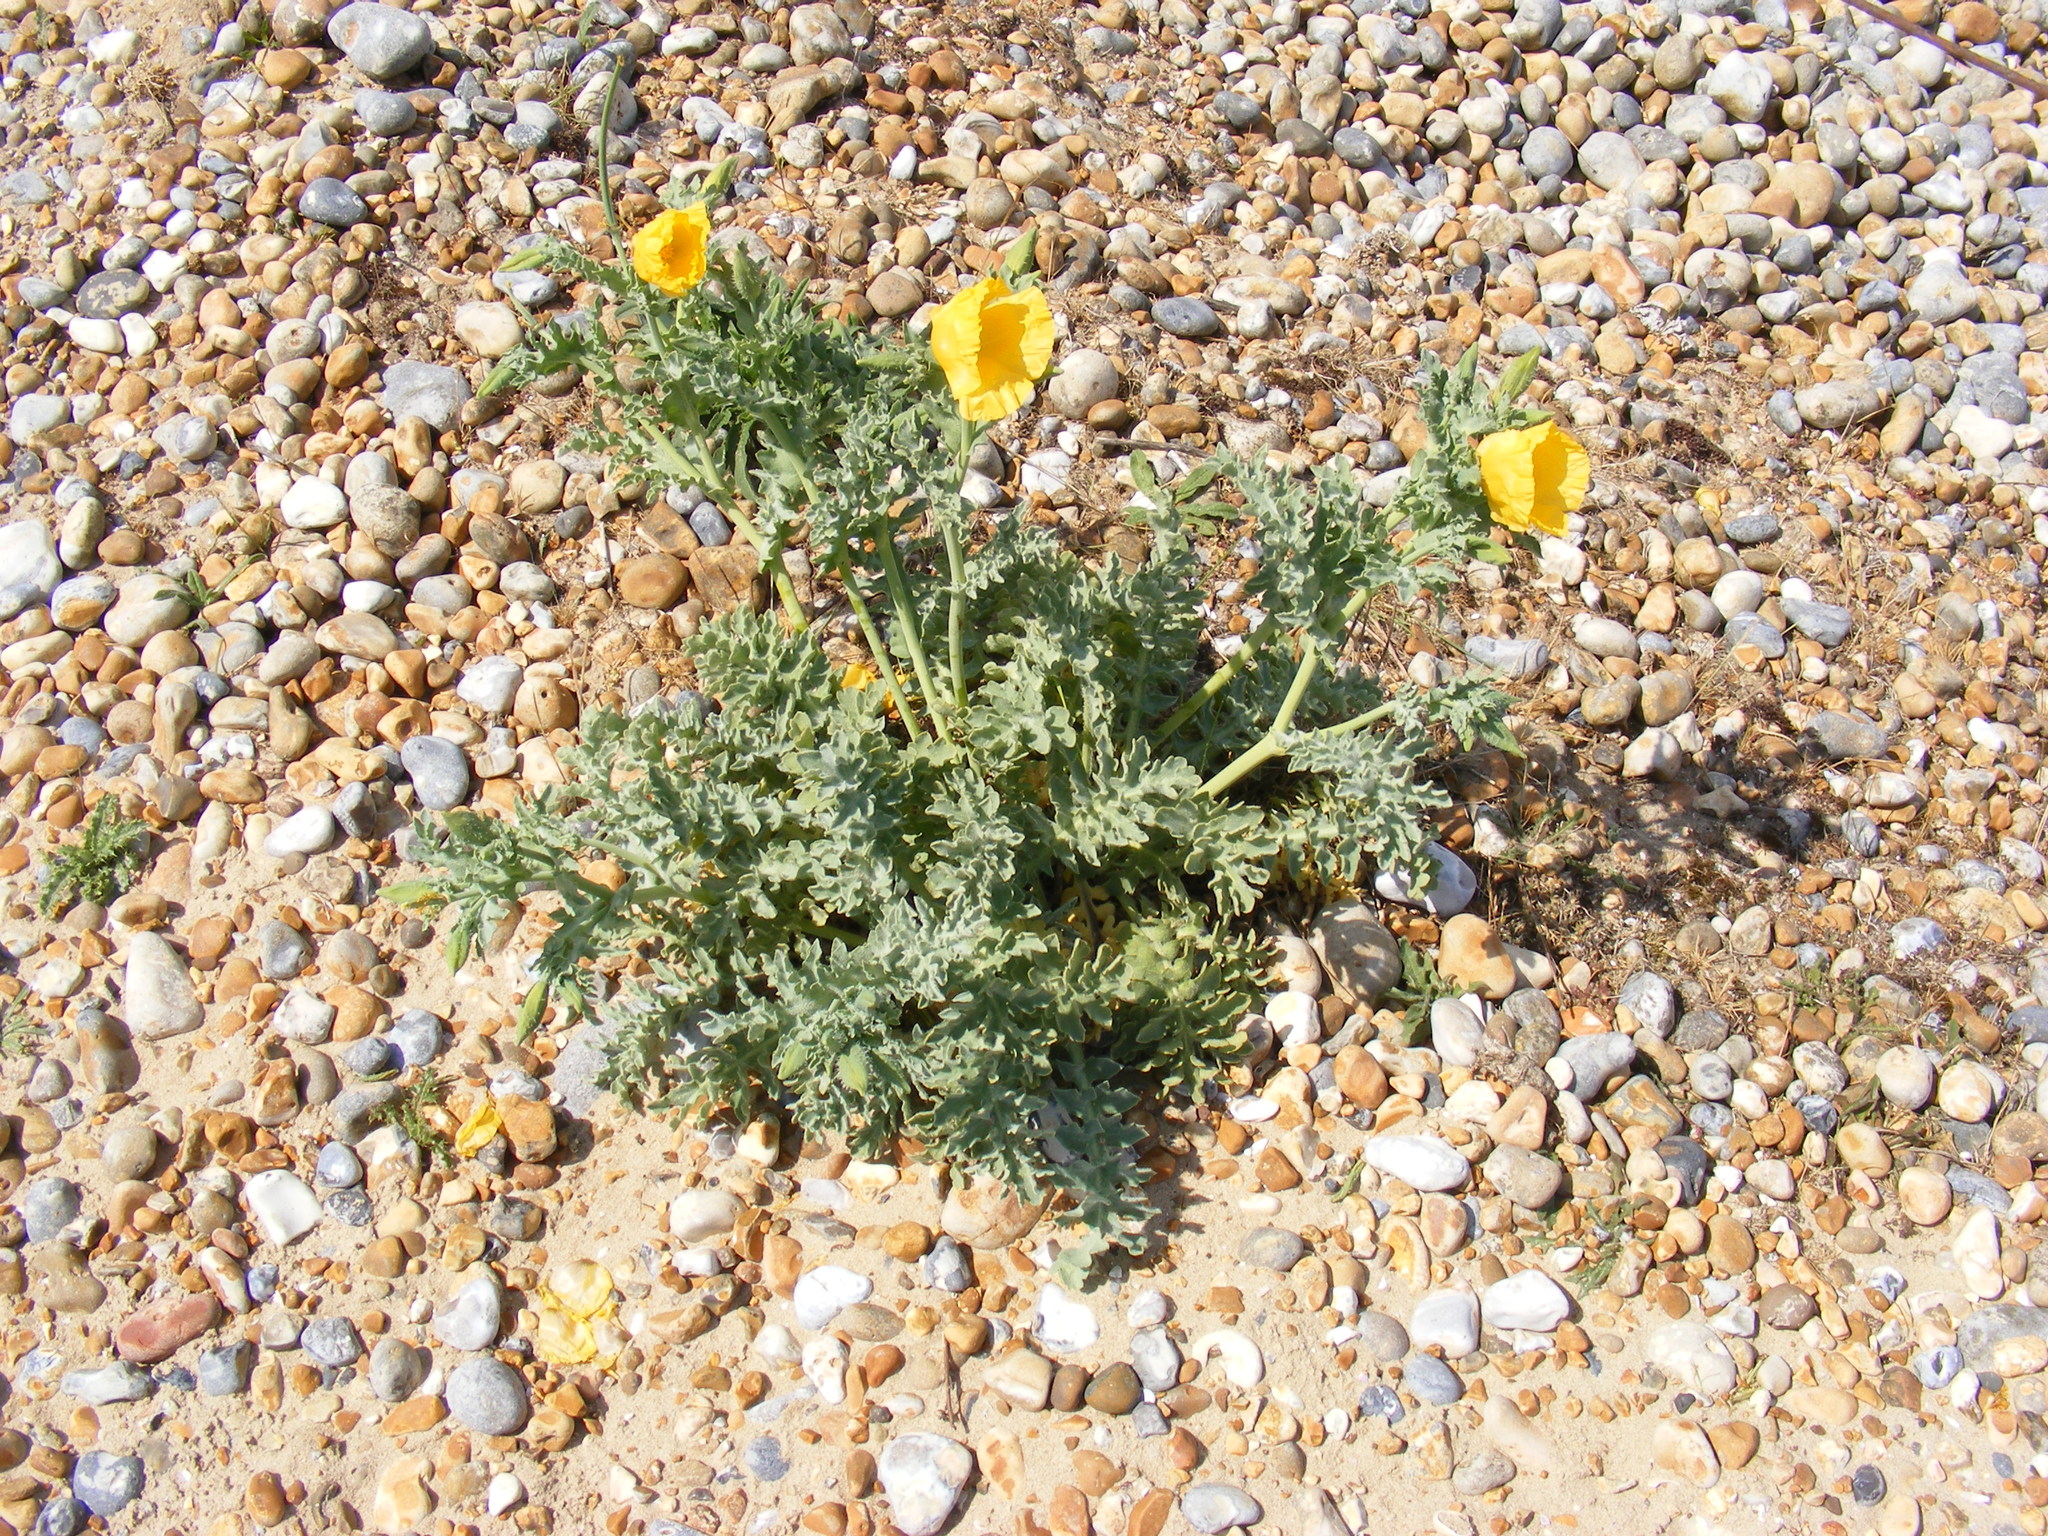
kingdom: Plantae
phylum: Tracheophyta
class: Magnoliopsida
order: Ranunculales
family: Papaveraceae
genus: Glaucium
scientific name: Glaucium flavum
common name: Yellow horned-poppy
